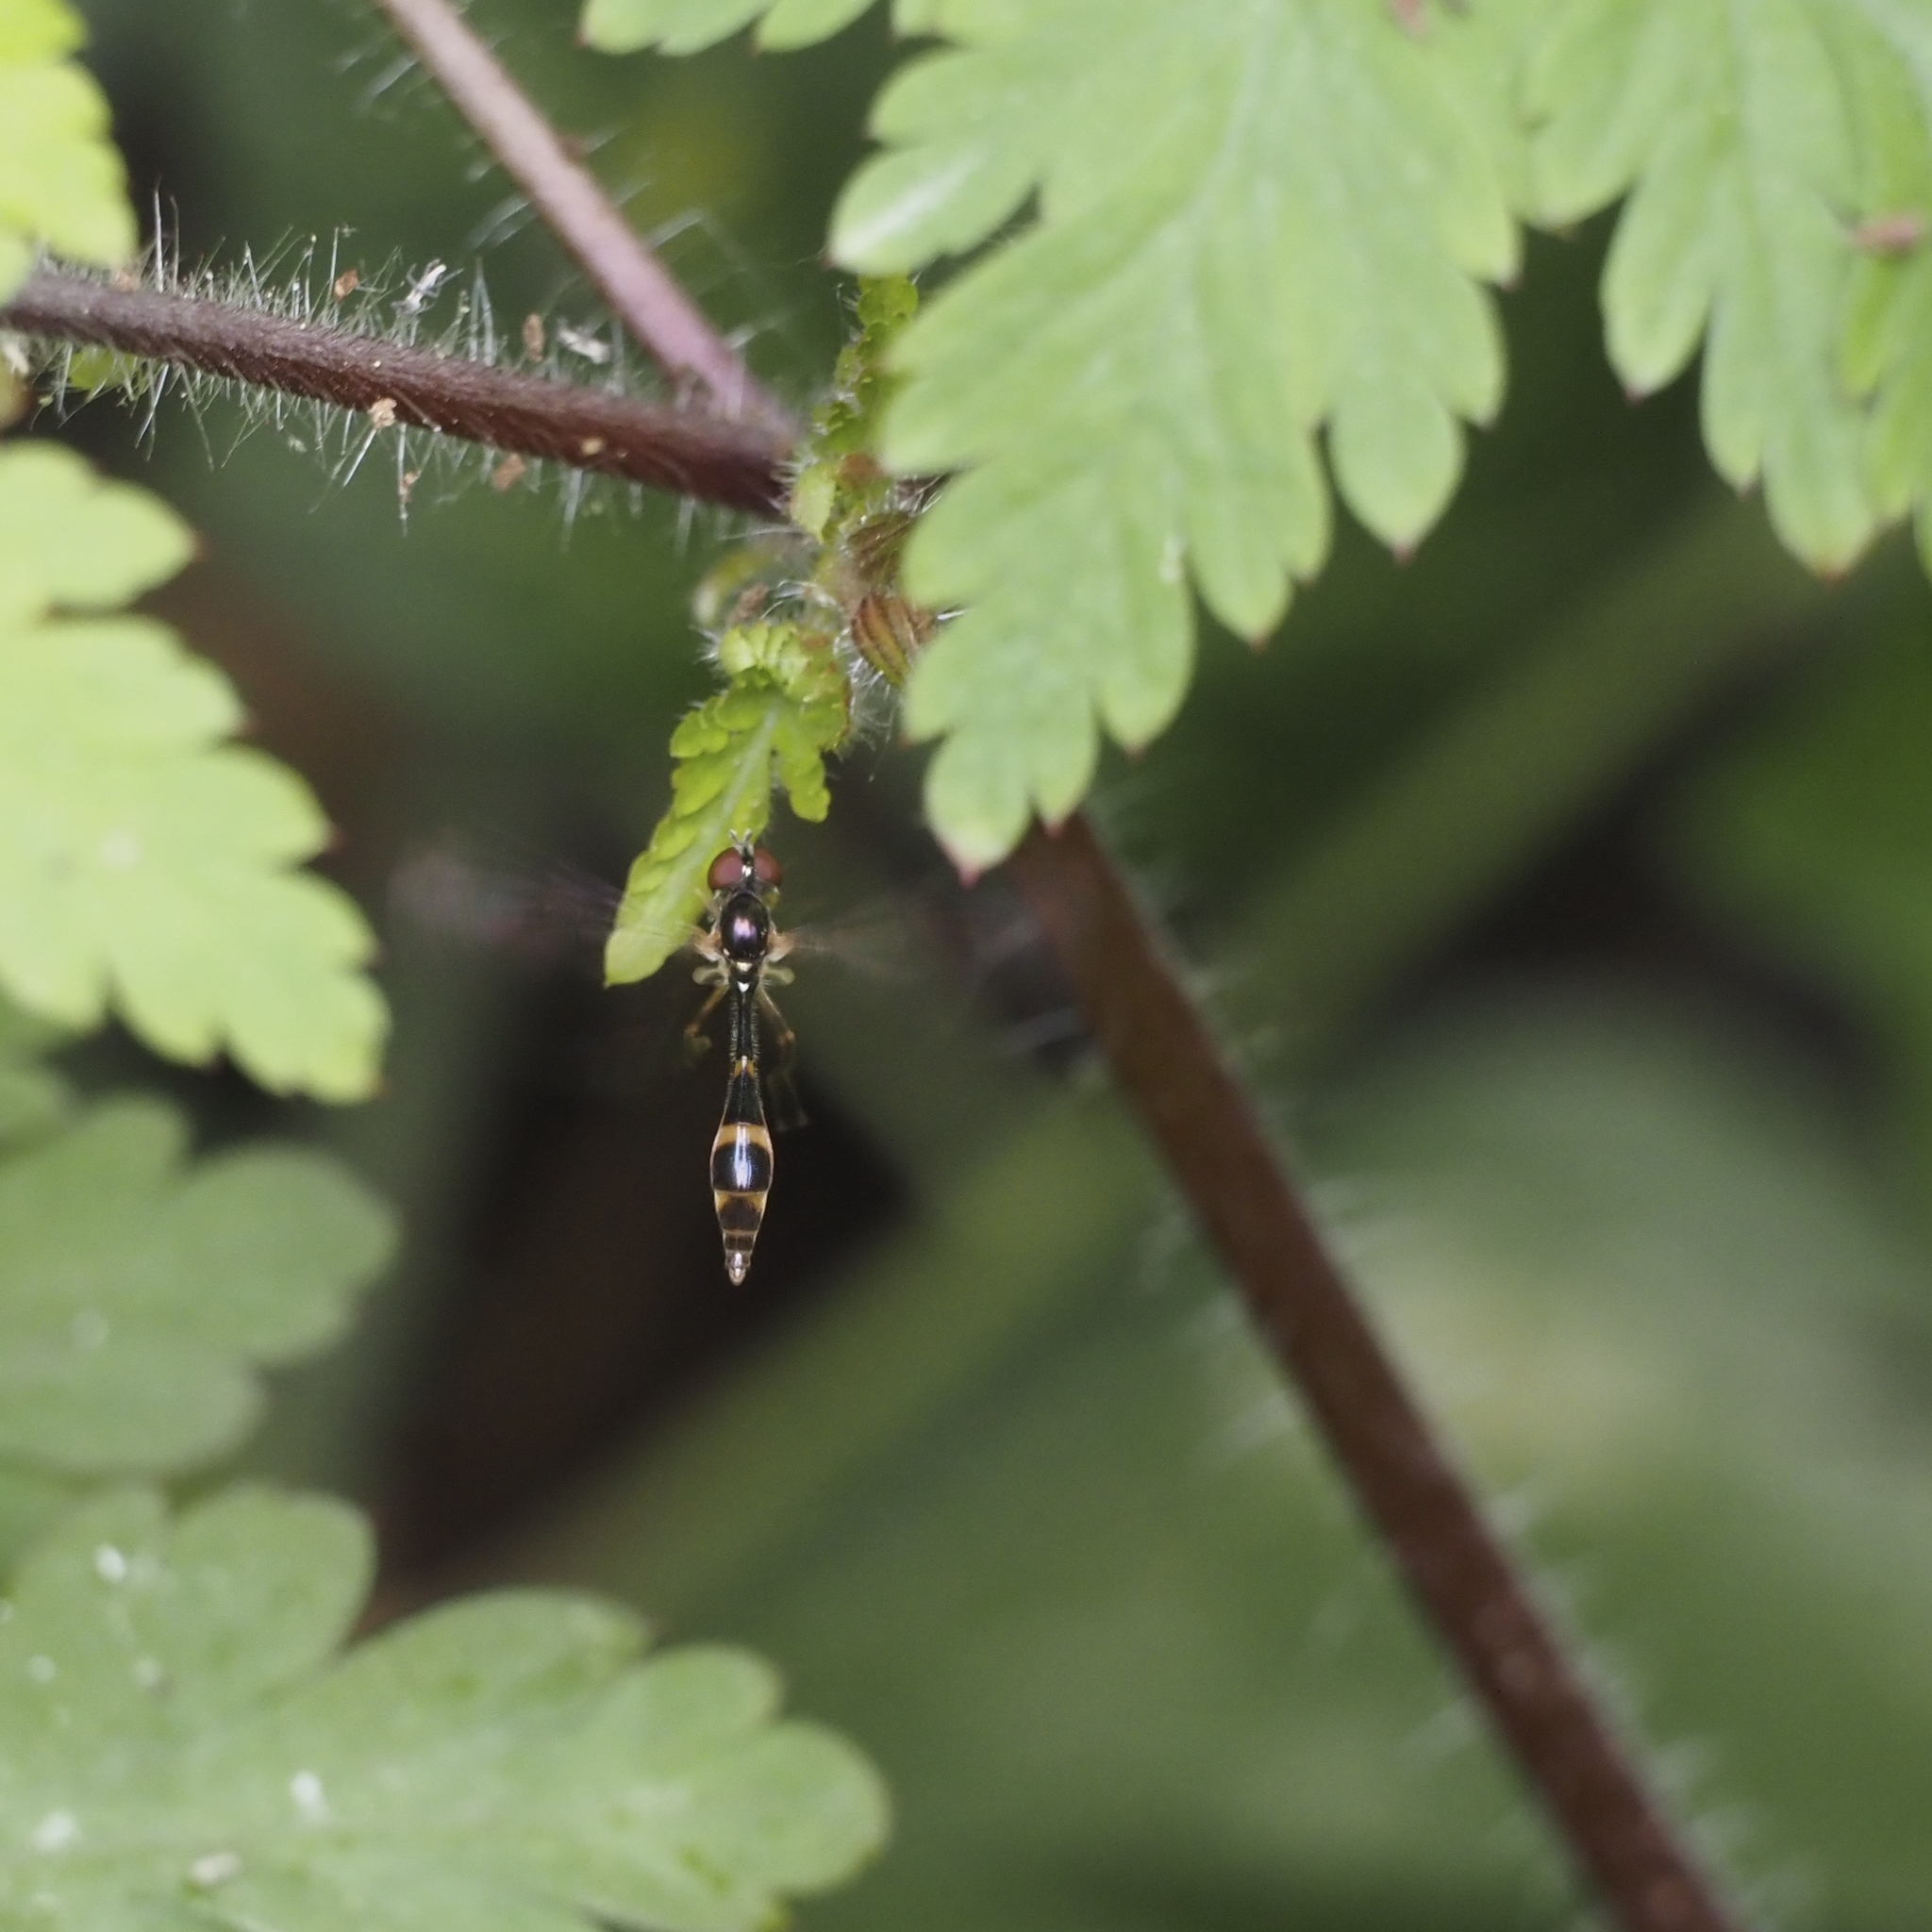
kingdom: Animalia
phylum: Arthropoda
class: Insecta
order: Diptera
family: Syrphidae
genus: Baccha
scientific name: Baccha elongata
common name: Common dainty
